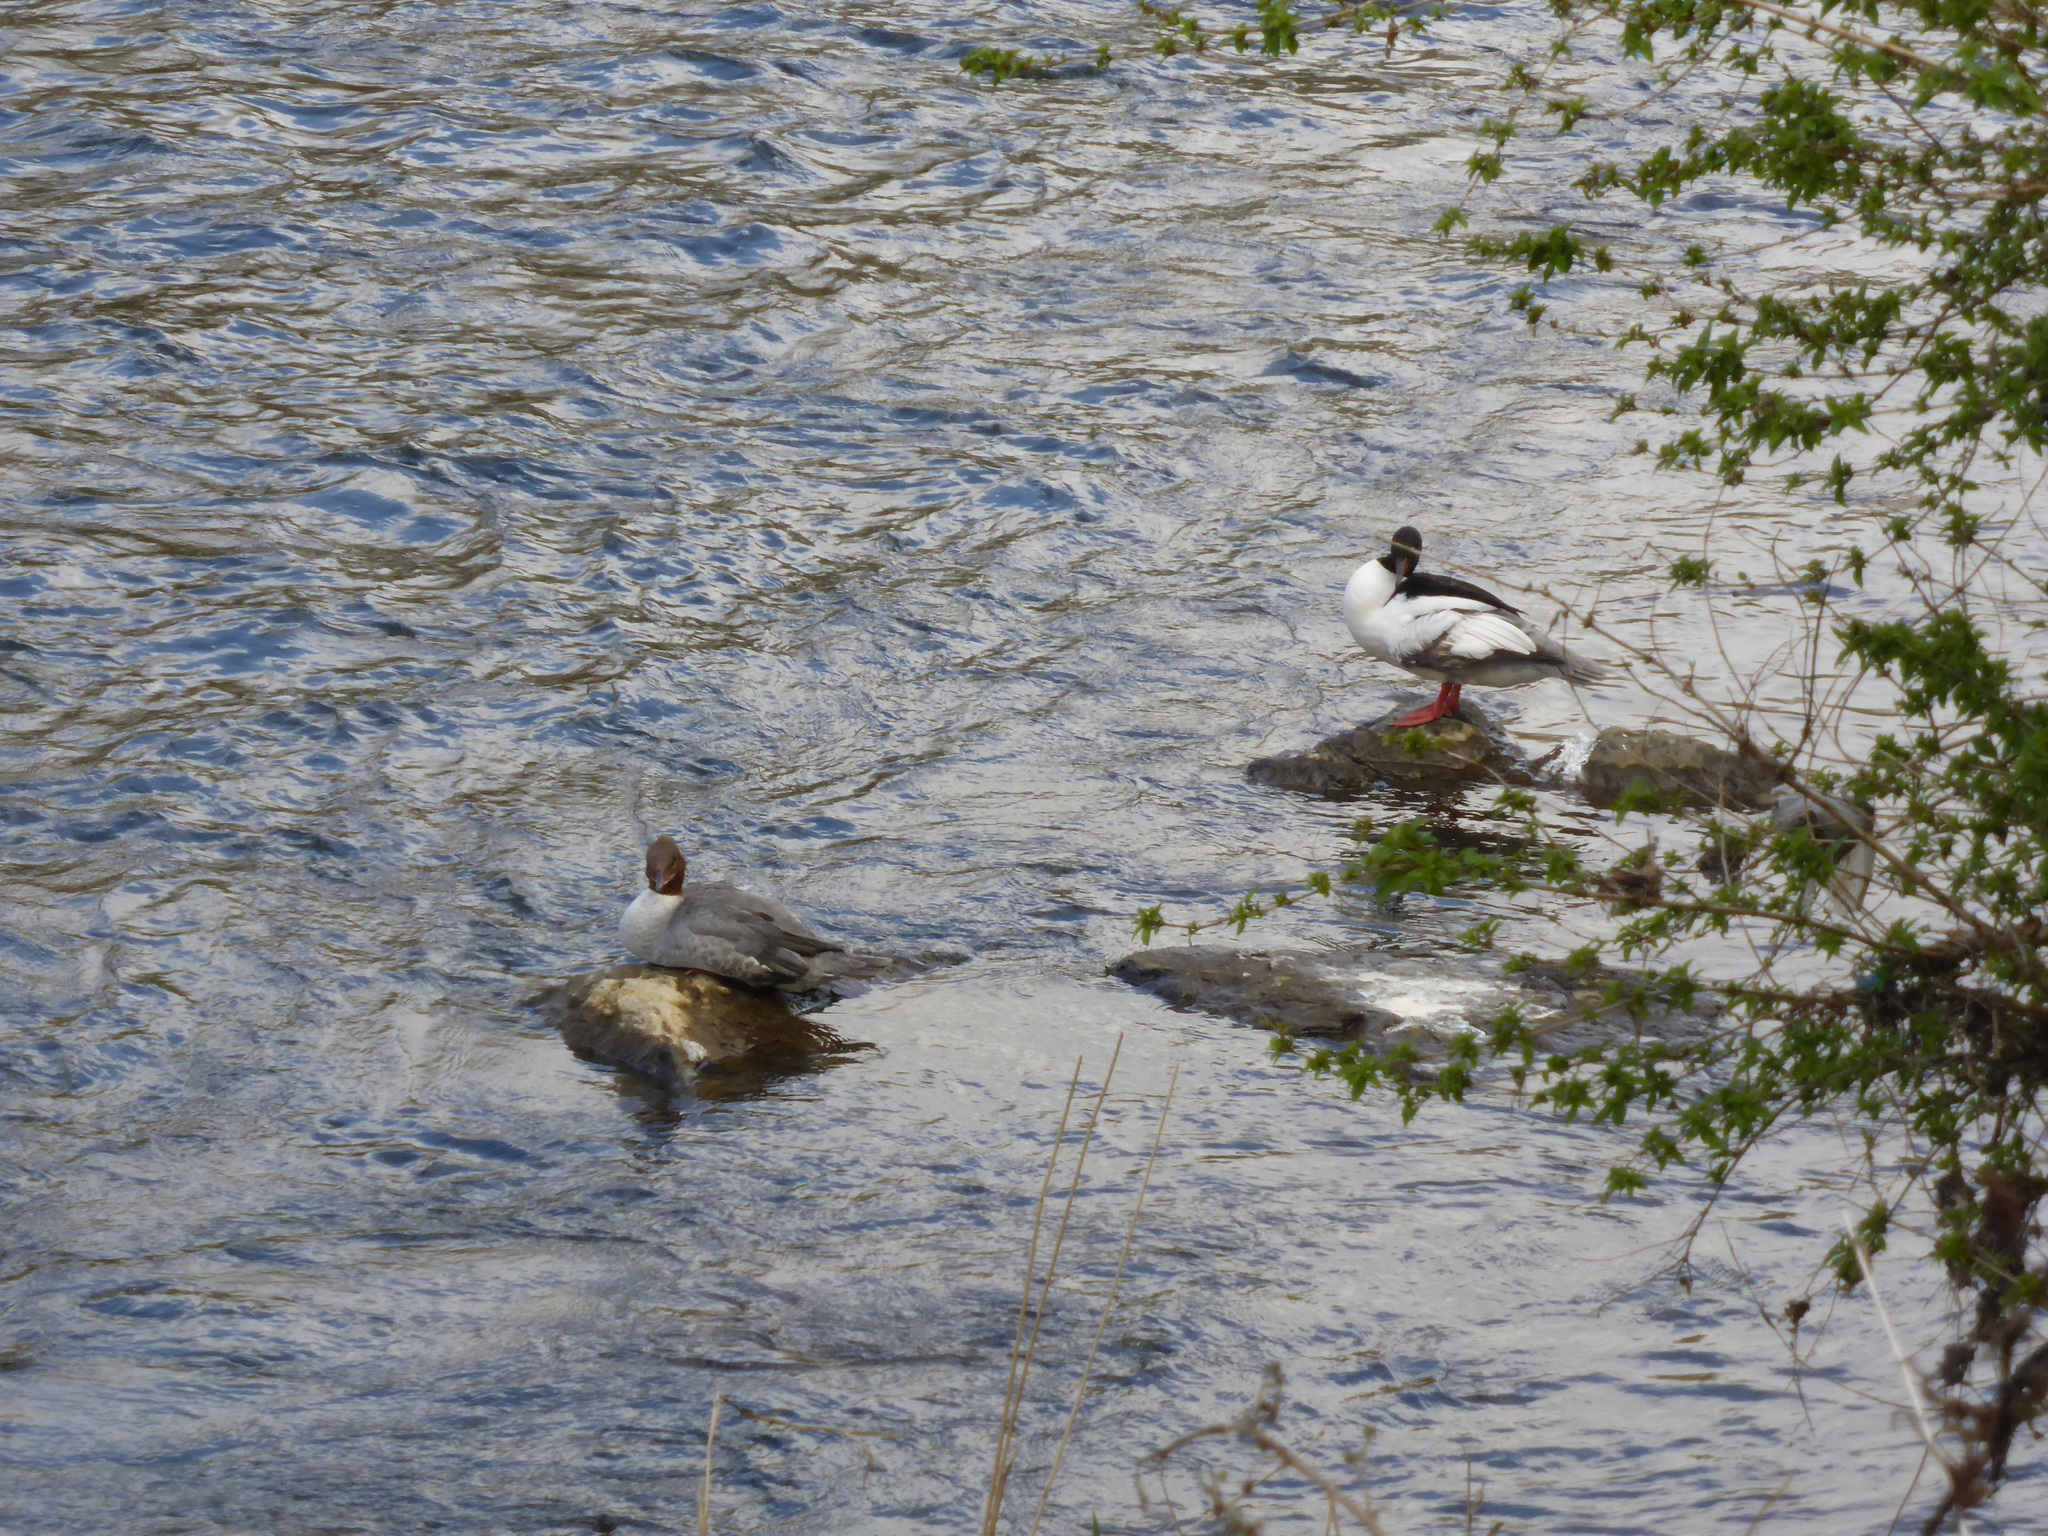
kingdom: Animalia
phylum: Chordata
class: Aves
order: Anseriformes
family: Anatidae
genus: Mergus
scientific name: Mergus merganser
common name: Common merganser
